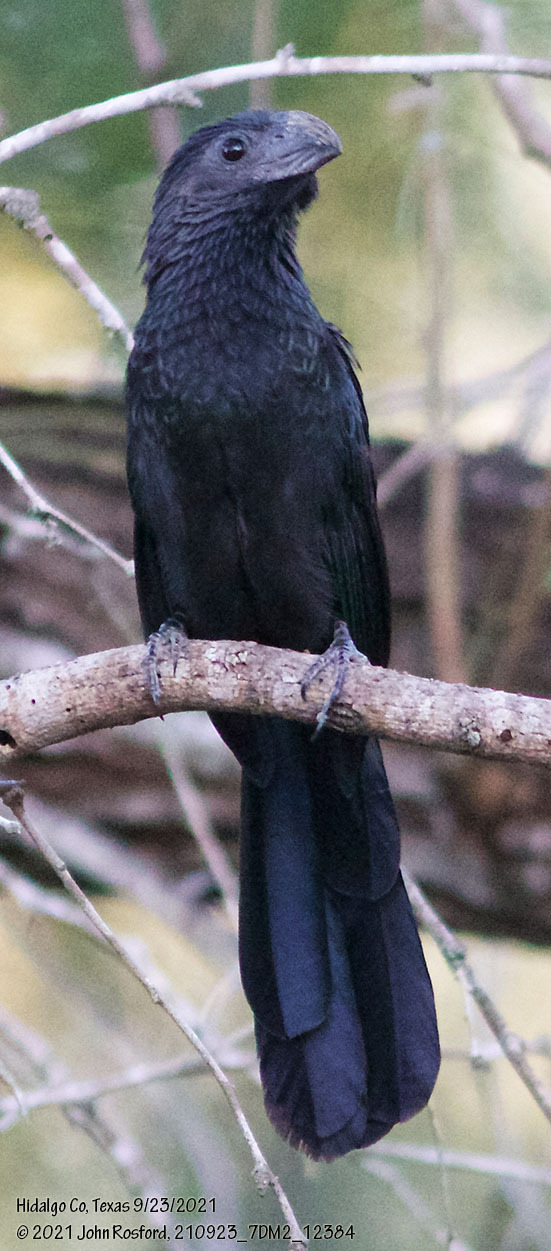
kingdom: Animalia
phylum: Chordata
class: Aves
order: Cuculiformes
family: Cuculidae
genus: Crotophaga
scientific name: Crotophaga sulcirostris
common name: Groove-billed ani
